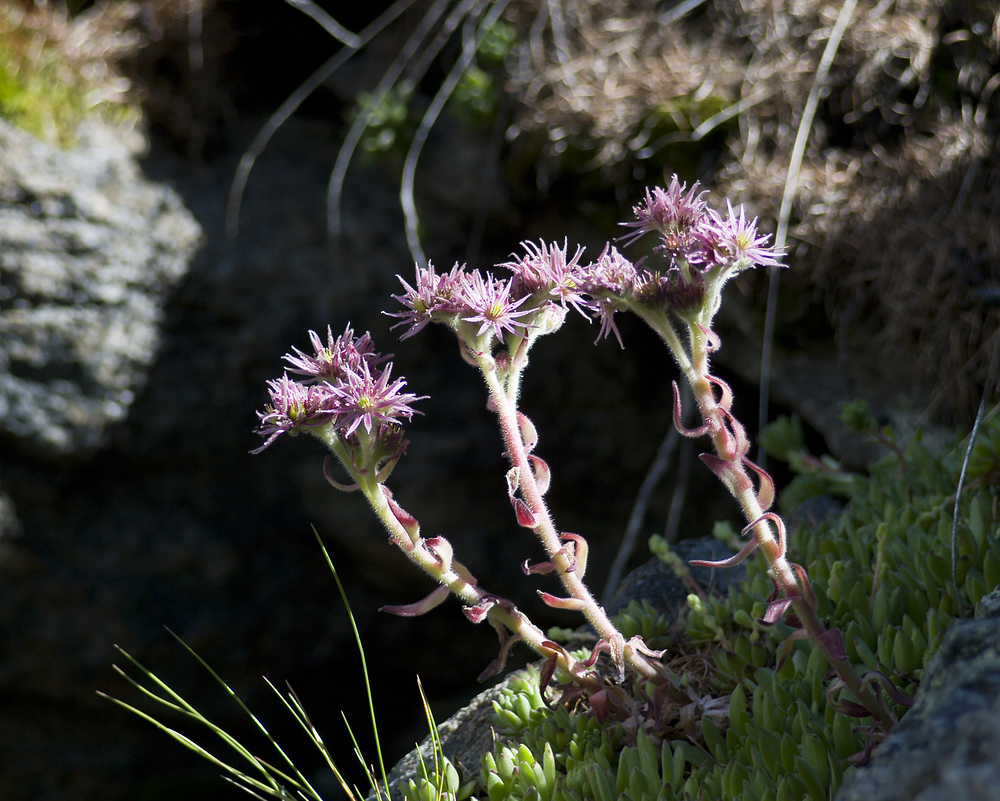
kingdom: Plantae
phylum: Tracheophyta
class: Magnoliopsida
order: Saxifragales
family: Crassulaceae
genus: Sempervivum
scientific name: Sempervivum montanum
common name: Mountain house-leek
